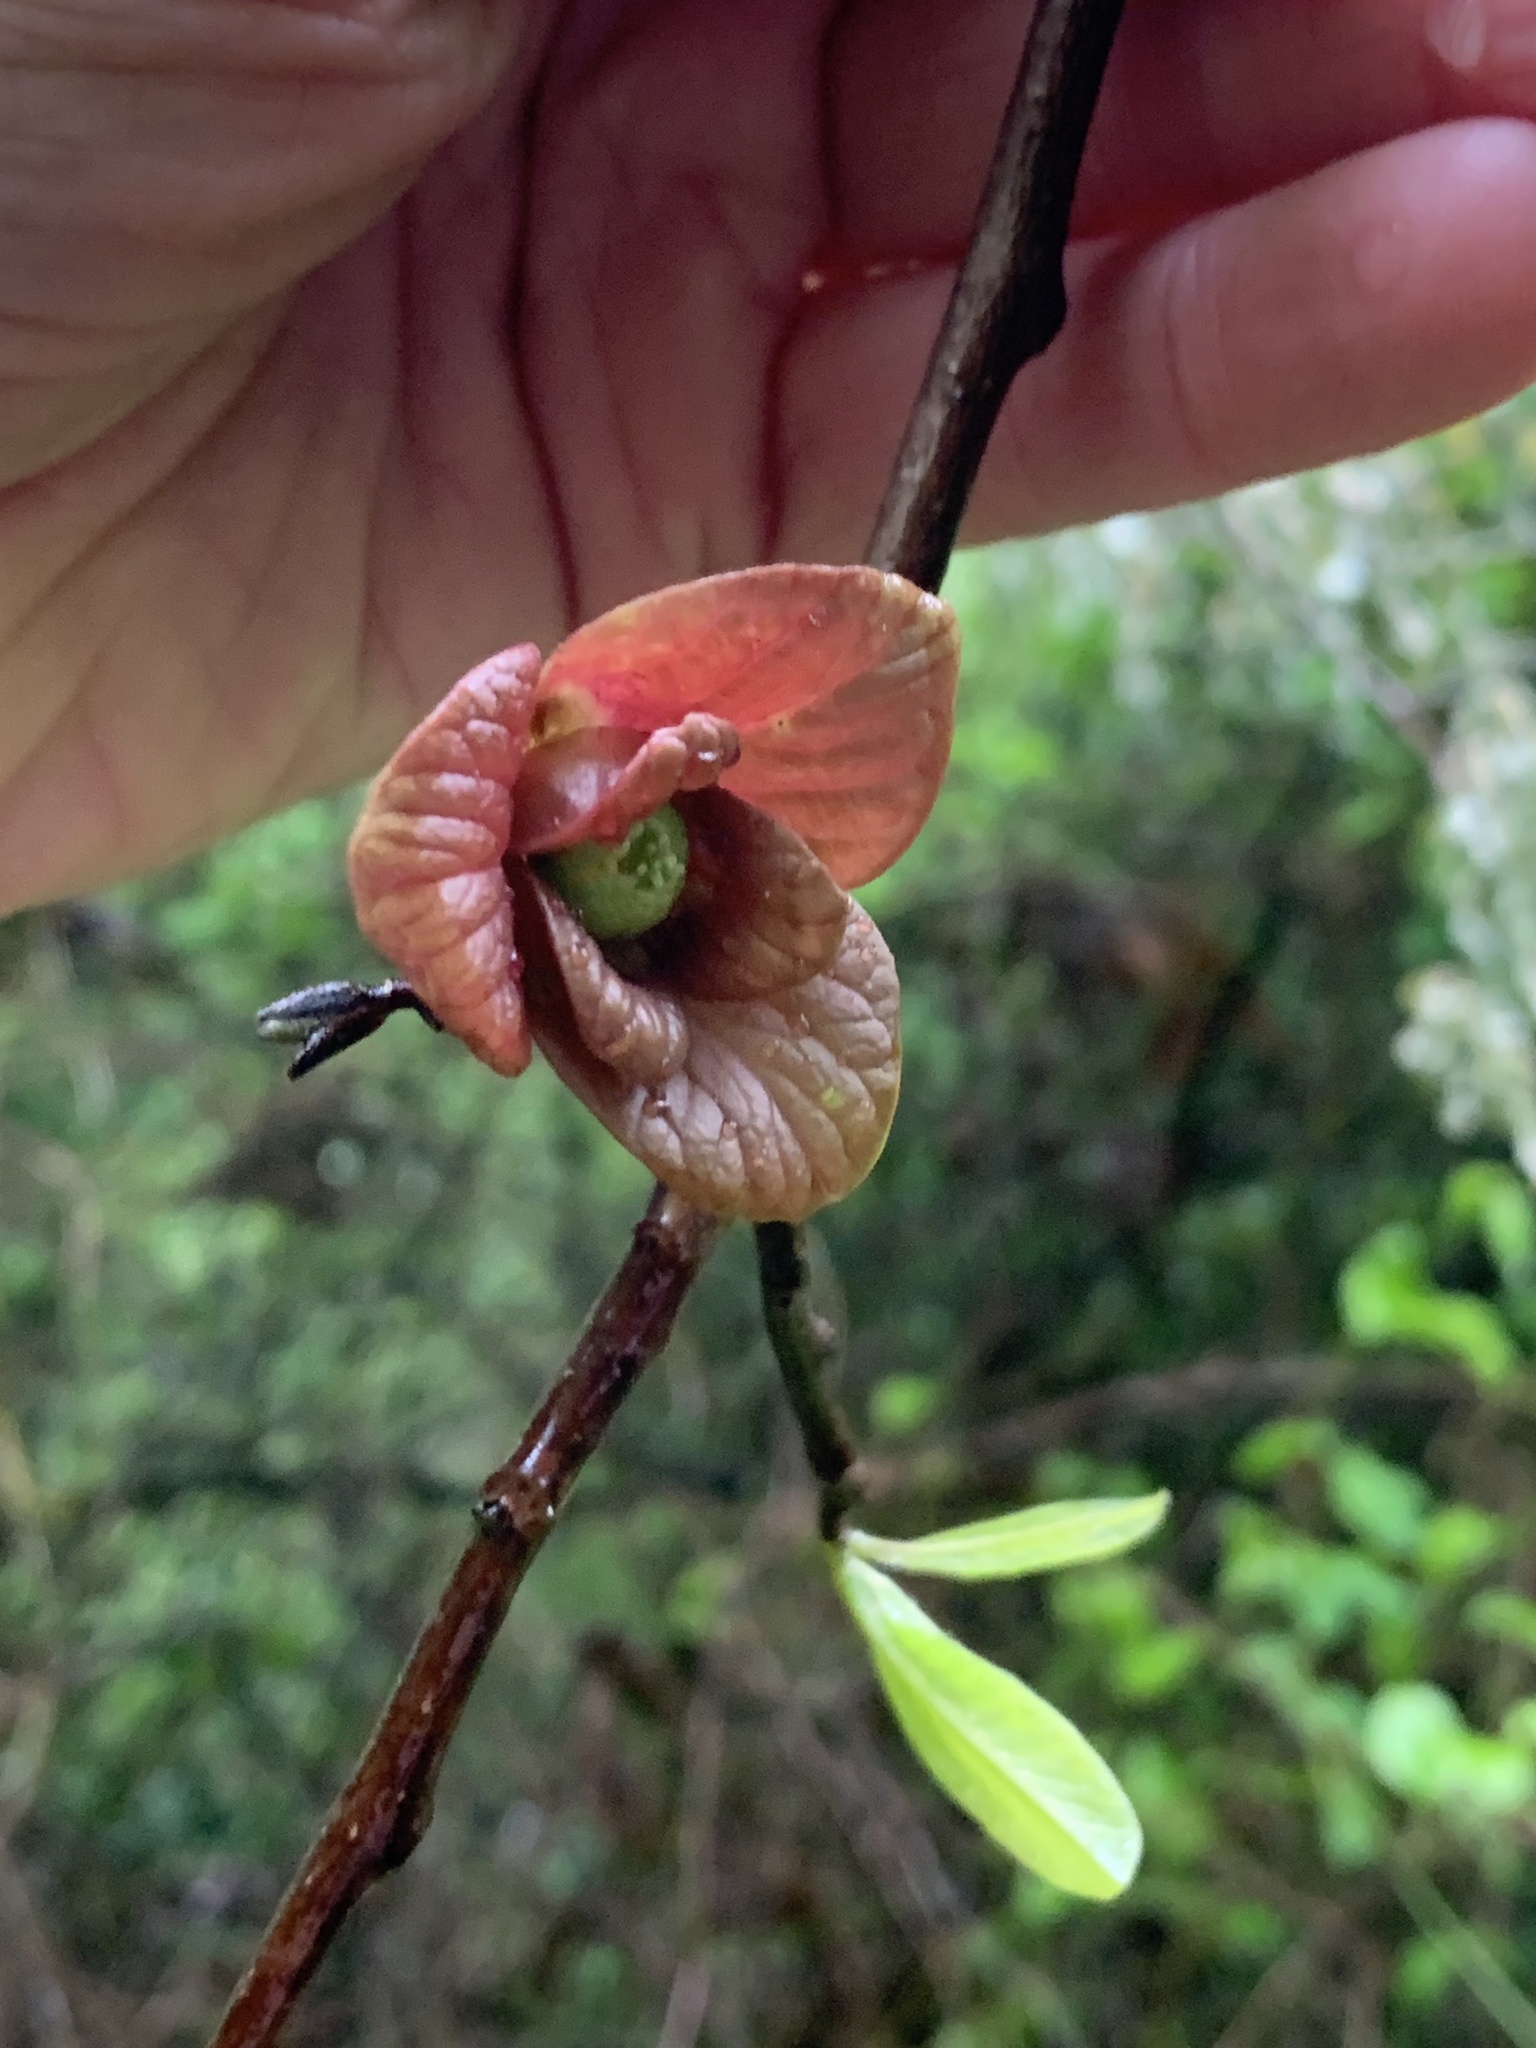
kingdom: Plantae
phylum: Tracheophyta
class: Magnoliopsida
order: Magnoliales
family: Annonaceae
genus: Asimina
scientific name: Asimina triloba
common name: Dog-banana
